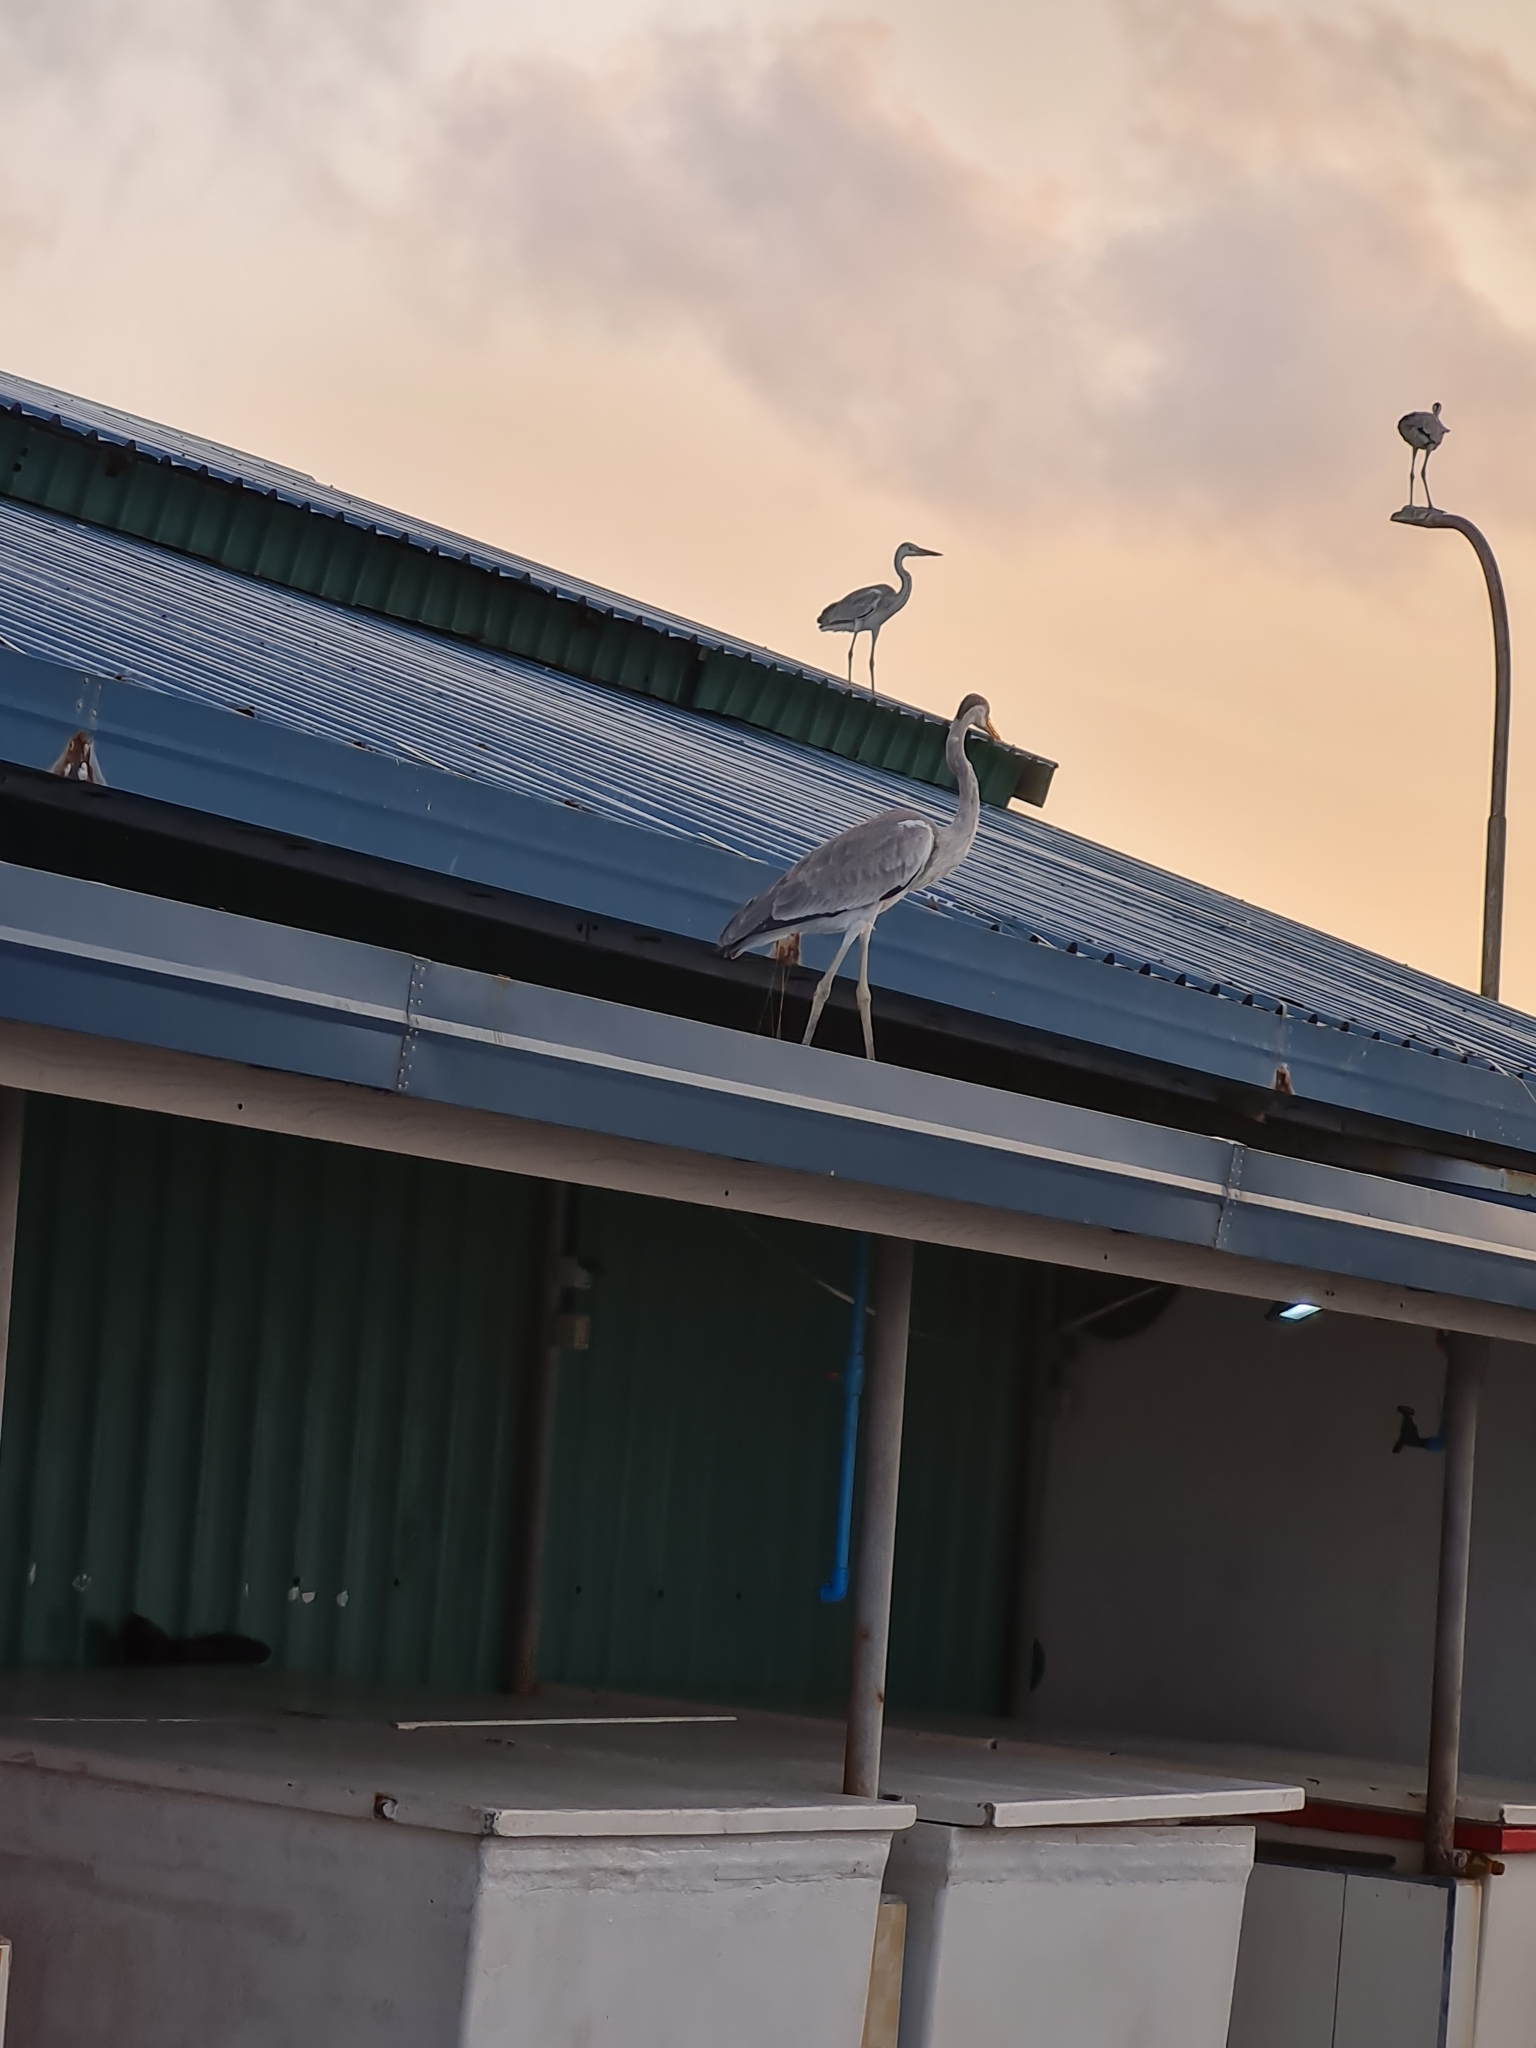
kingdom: Animalia
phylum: Chordata
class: Aves
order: Pelecaniformes
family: Ardeidae
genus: Ardea
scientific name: Ardea cinerea
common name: Grey heron
